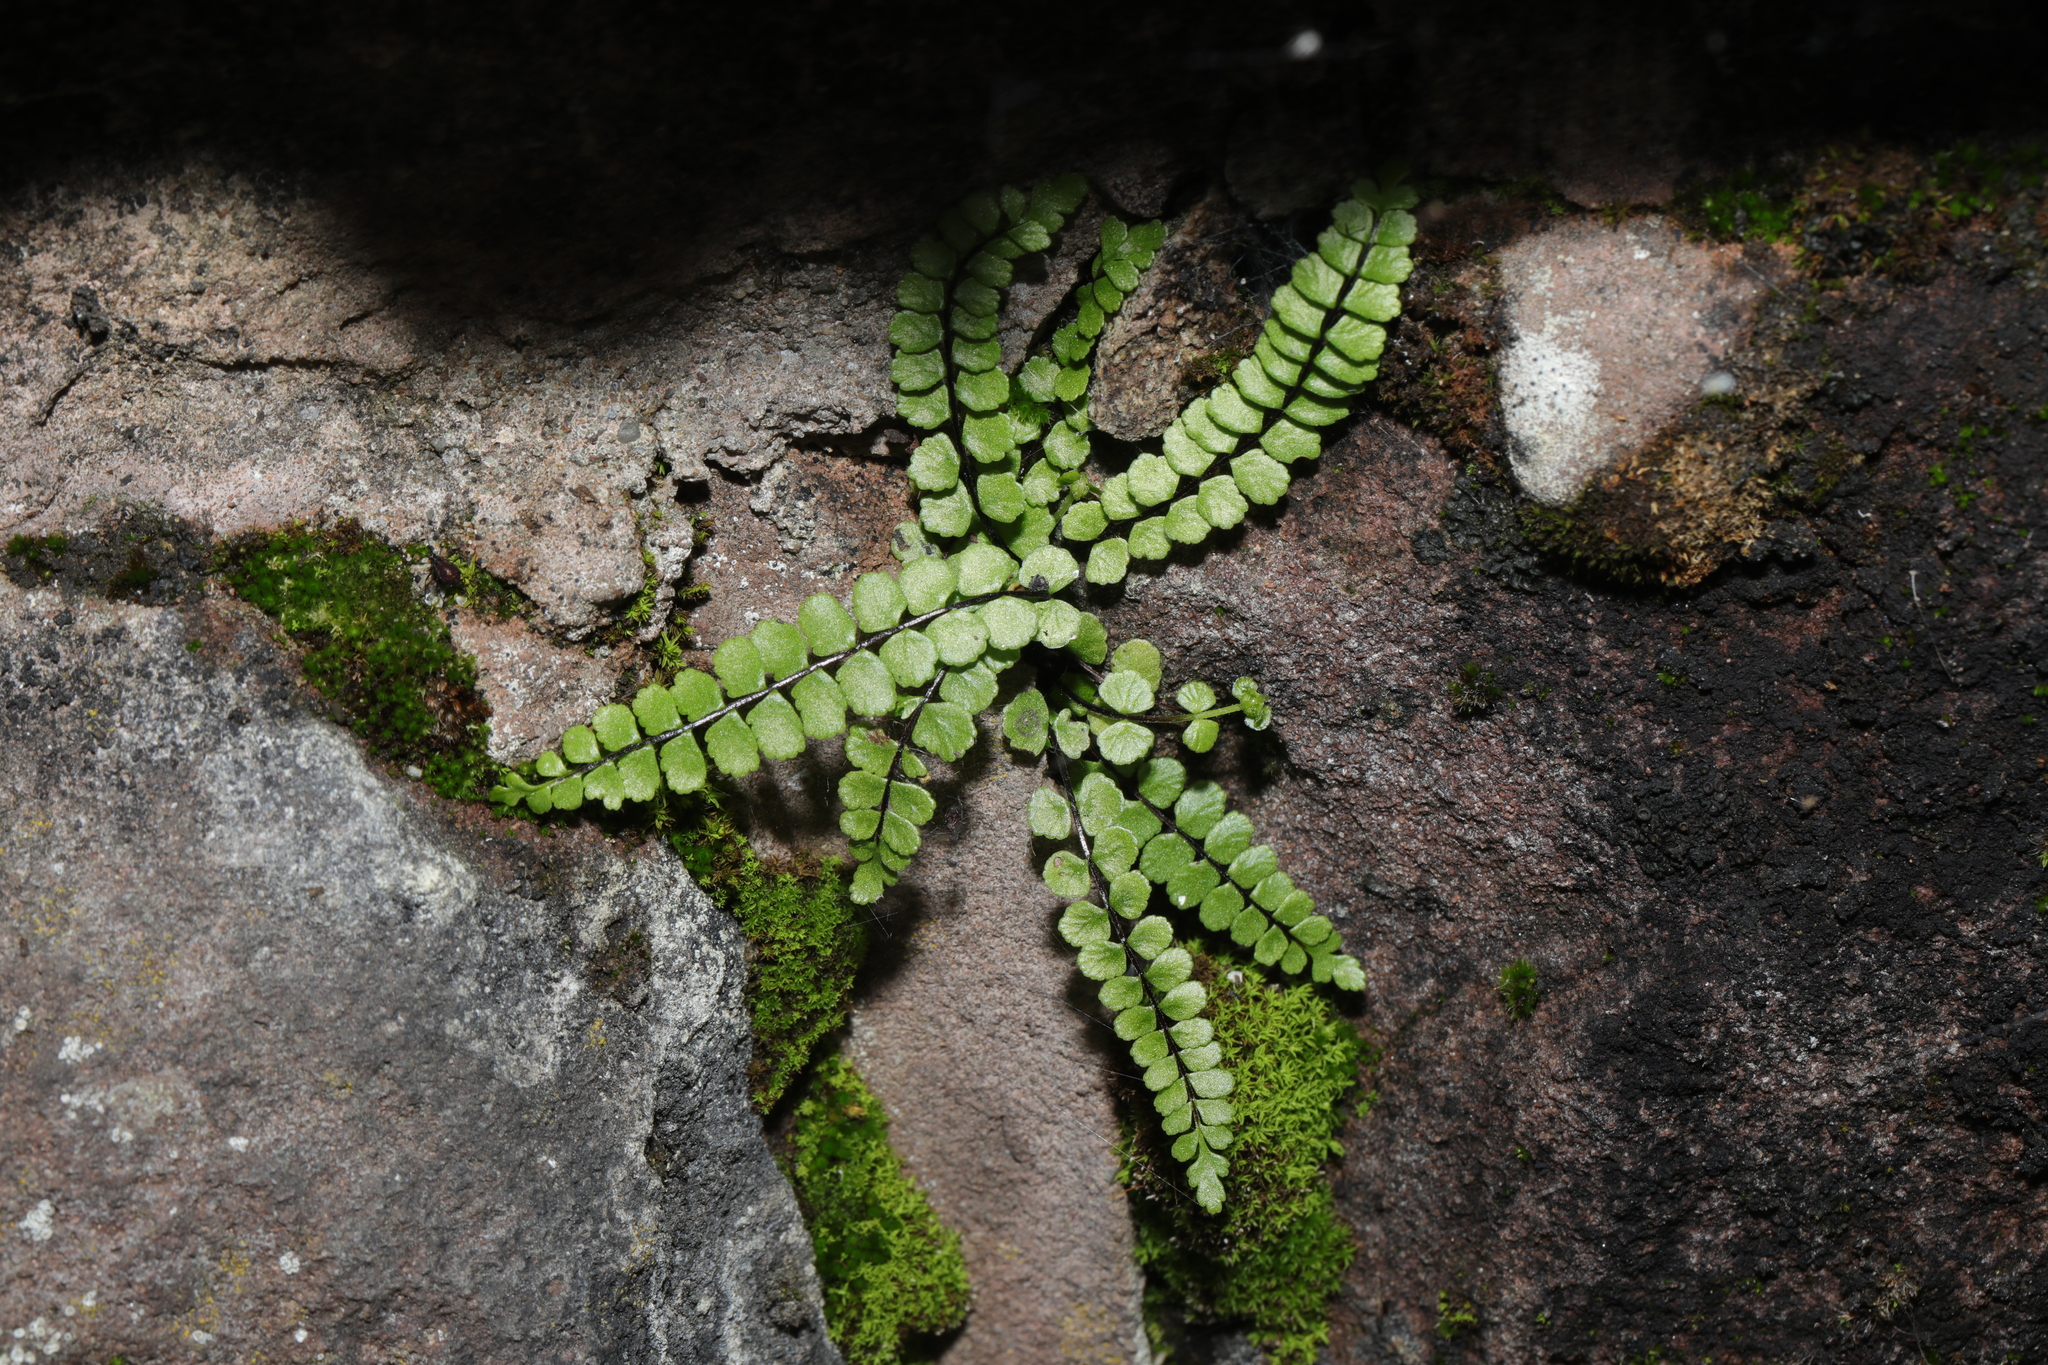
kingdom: Plantae
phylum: Tracheophyta
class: Polypodiopsida
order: Polypodiales
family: Aspleniaceae
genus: Asplenium
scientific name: Asplenium trichomanes
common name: Maidenhair spleenwort
